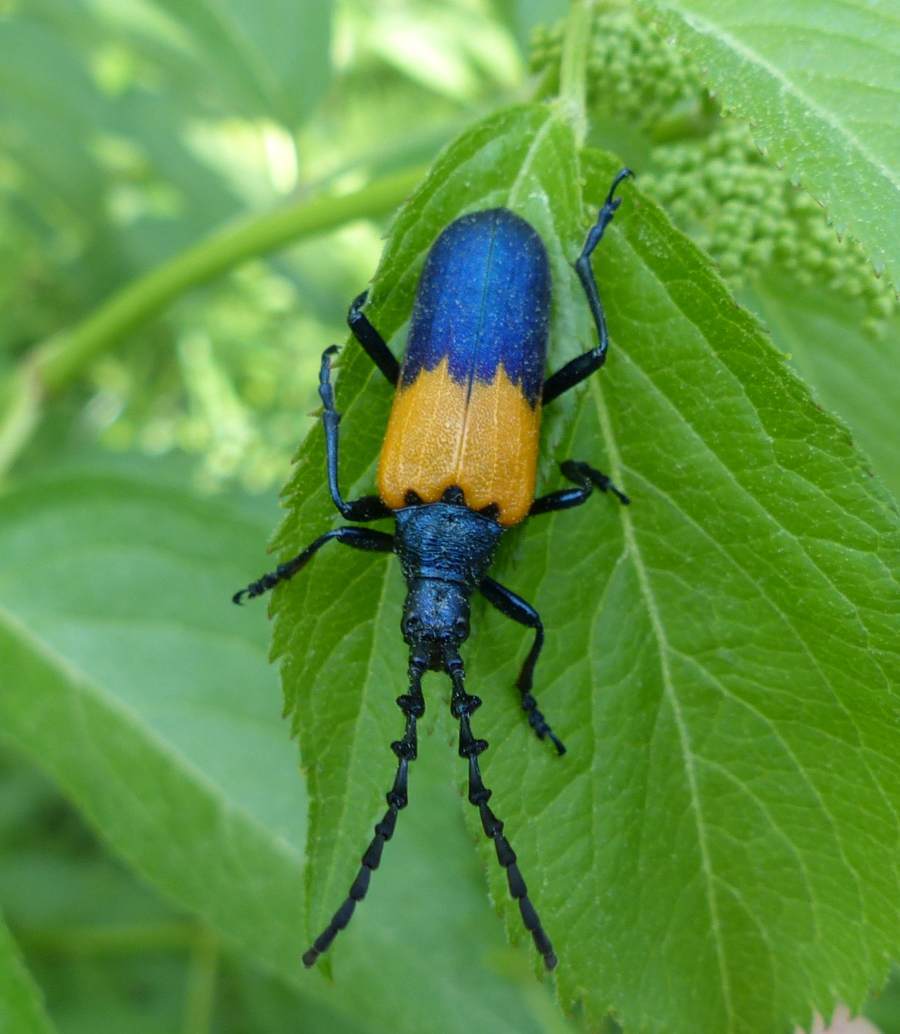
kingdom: Animalia
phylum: Arthropoda
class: Insecta
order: Coleoptera
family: Cerambycidae
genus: Desmocerus
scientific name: Desmocerus palliatus
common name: Eastern elderberry borer
